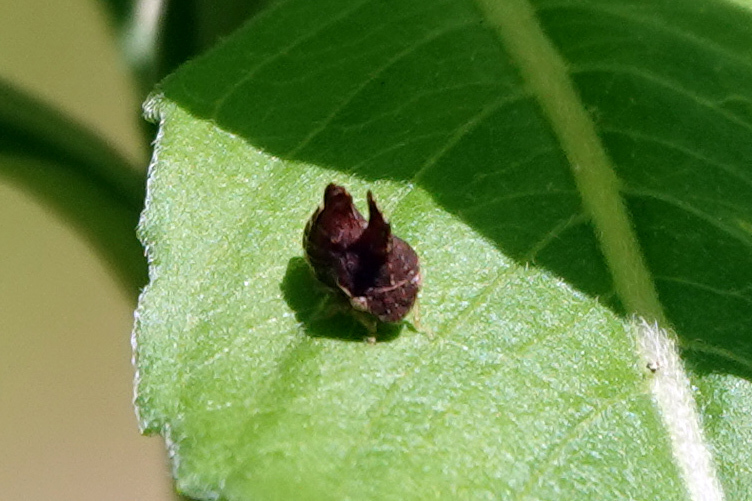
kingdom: Animalia
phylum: Arthropoda
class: Insecta
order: Hemiptera
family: Membracidae
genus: Entylia
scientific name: Entylia carinata
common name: Keeled treehopper
